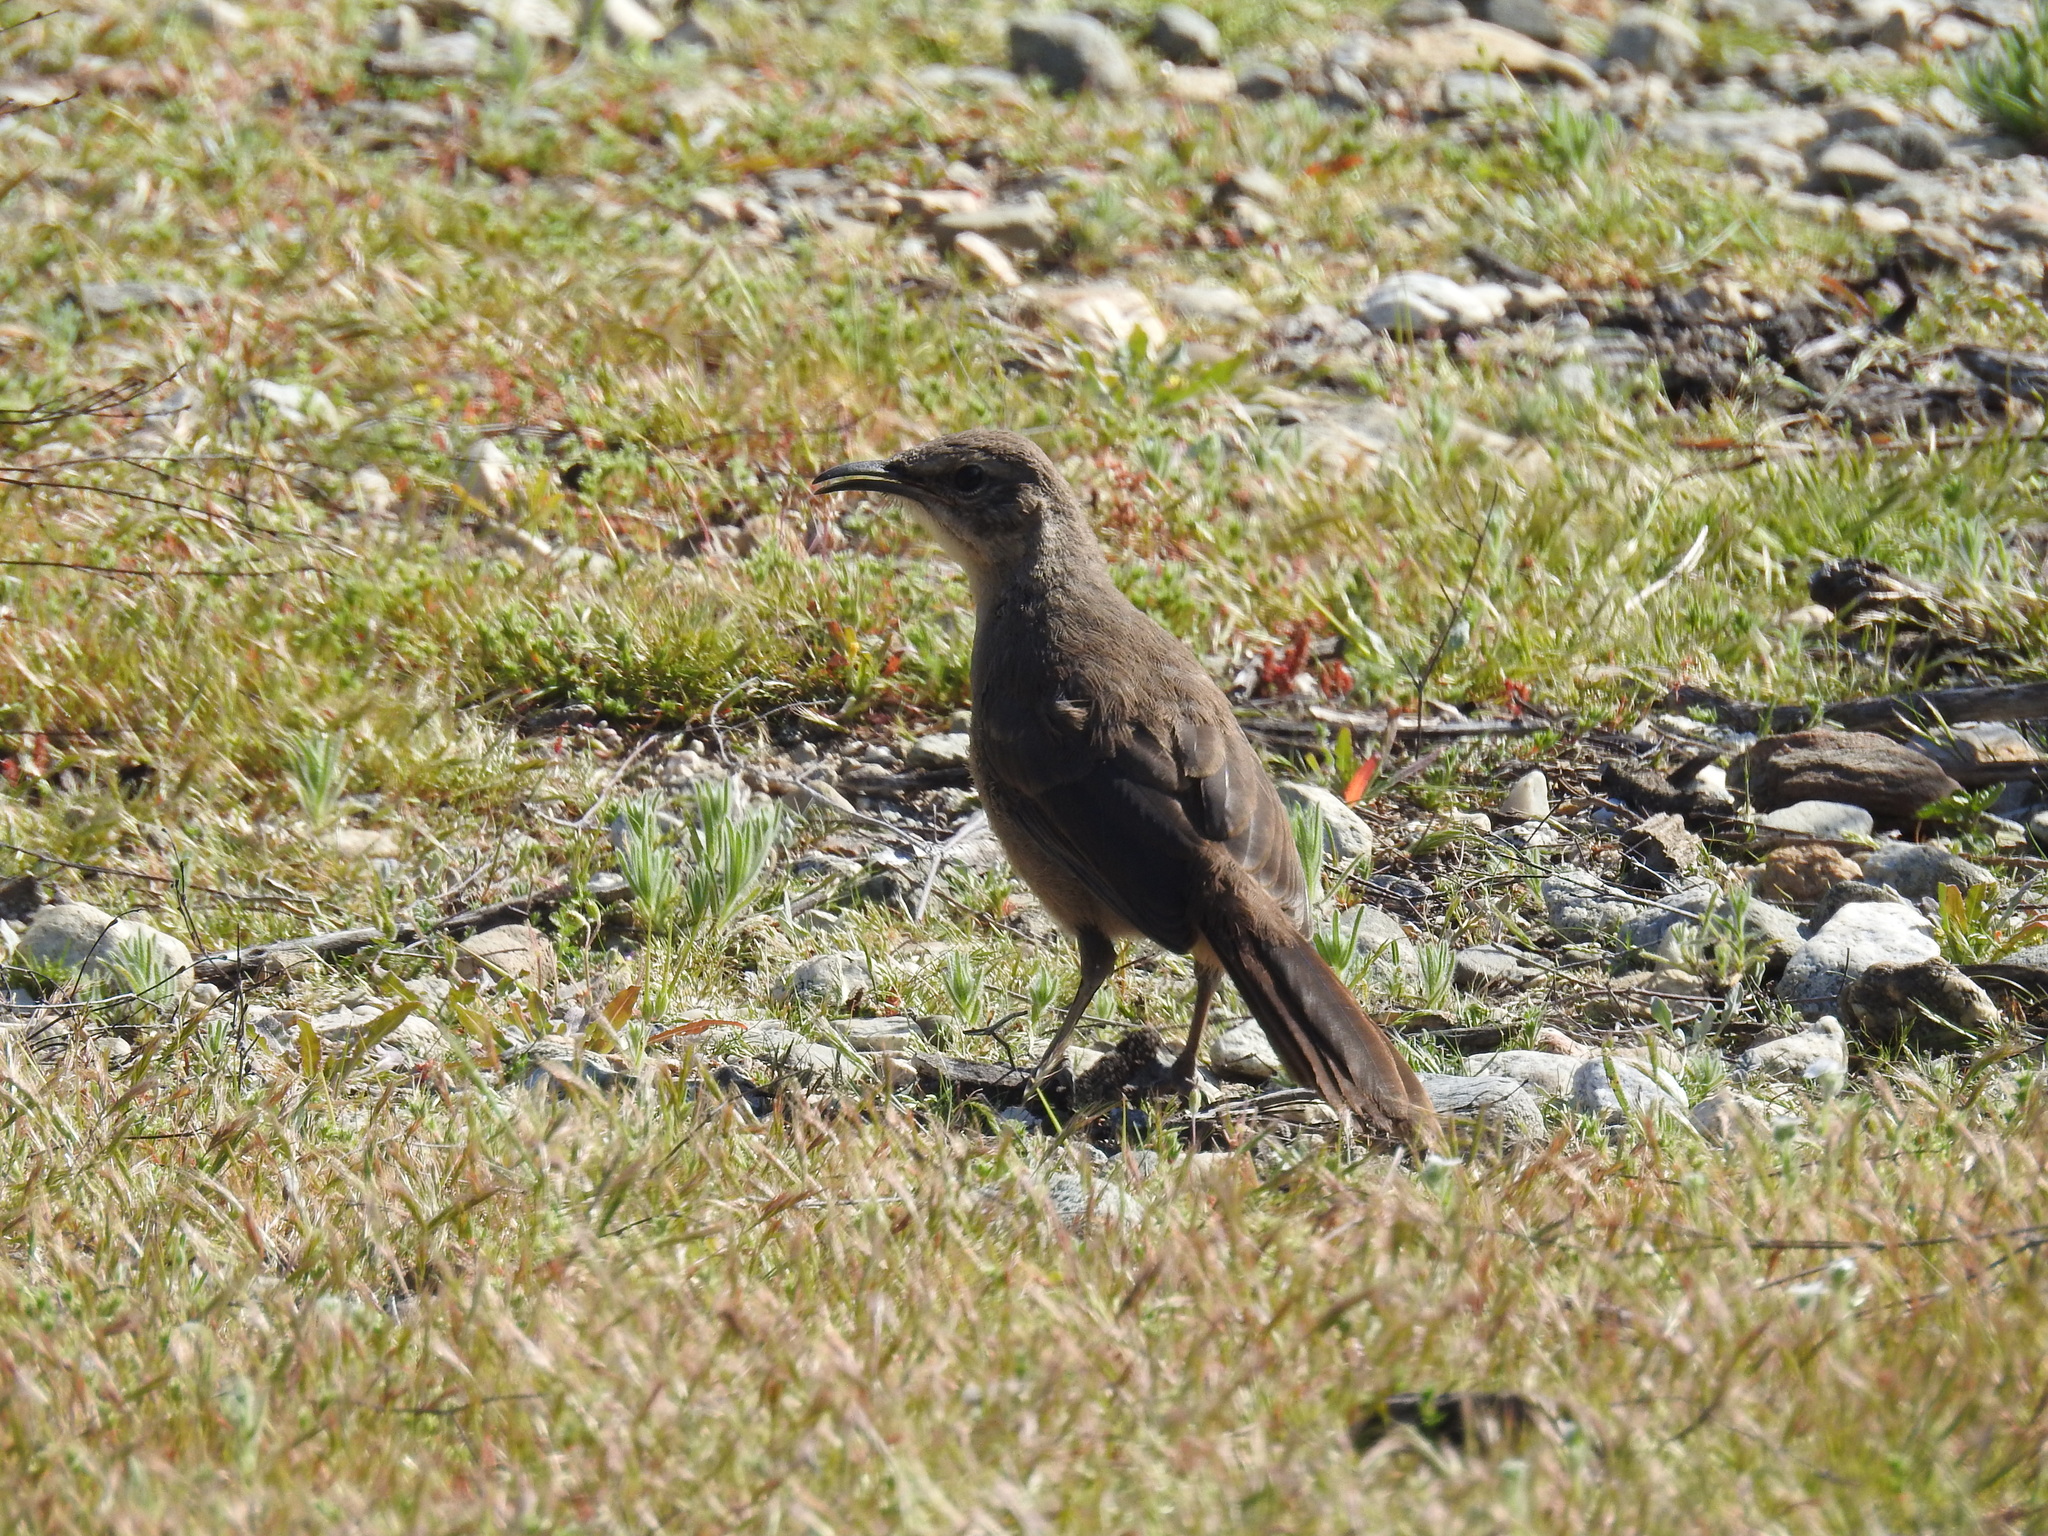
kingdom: Animalia
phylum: Chordata
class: Aves
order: Passeriformes
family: Mimidae
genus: Toxostoma
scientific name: Toxostoma redivivum
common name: California thrasher
